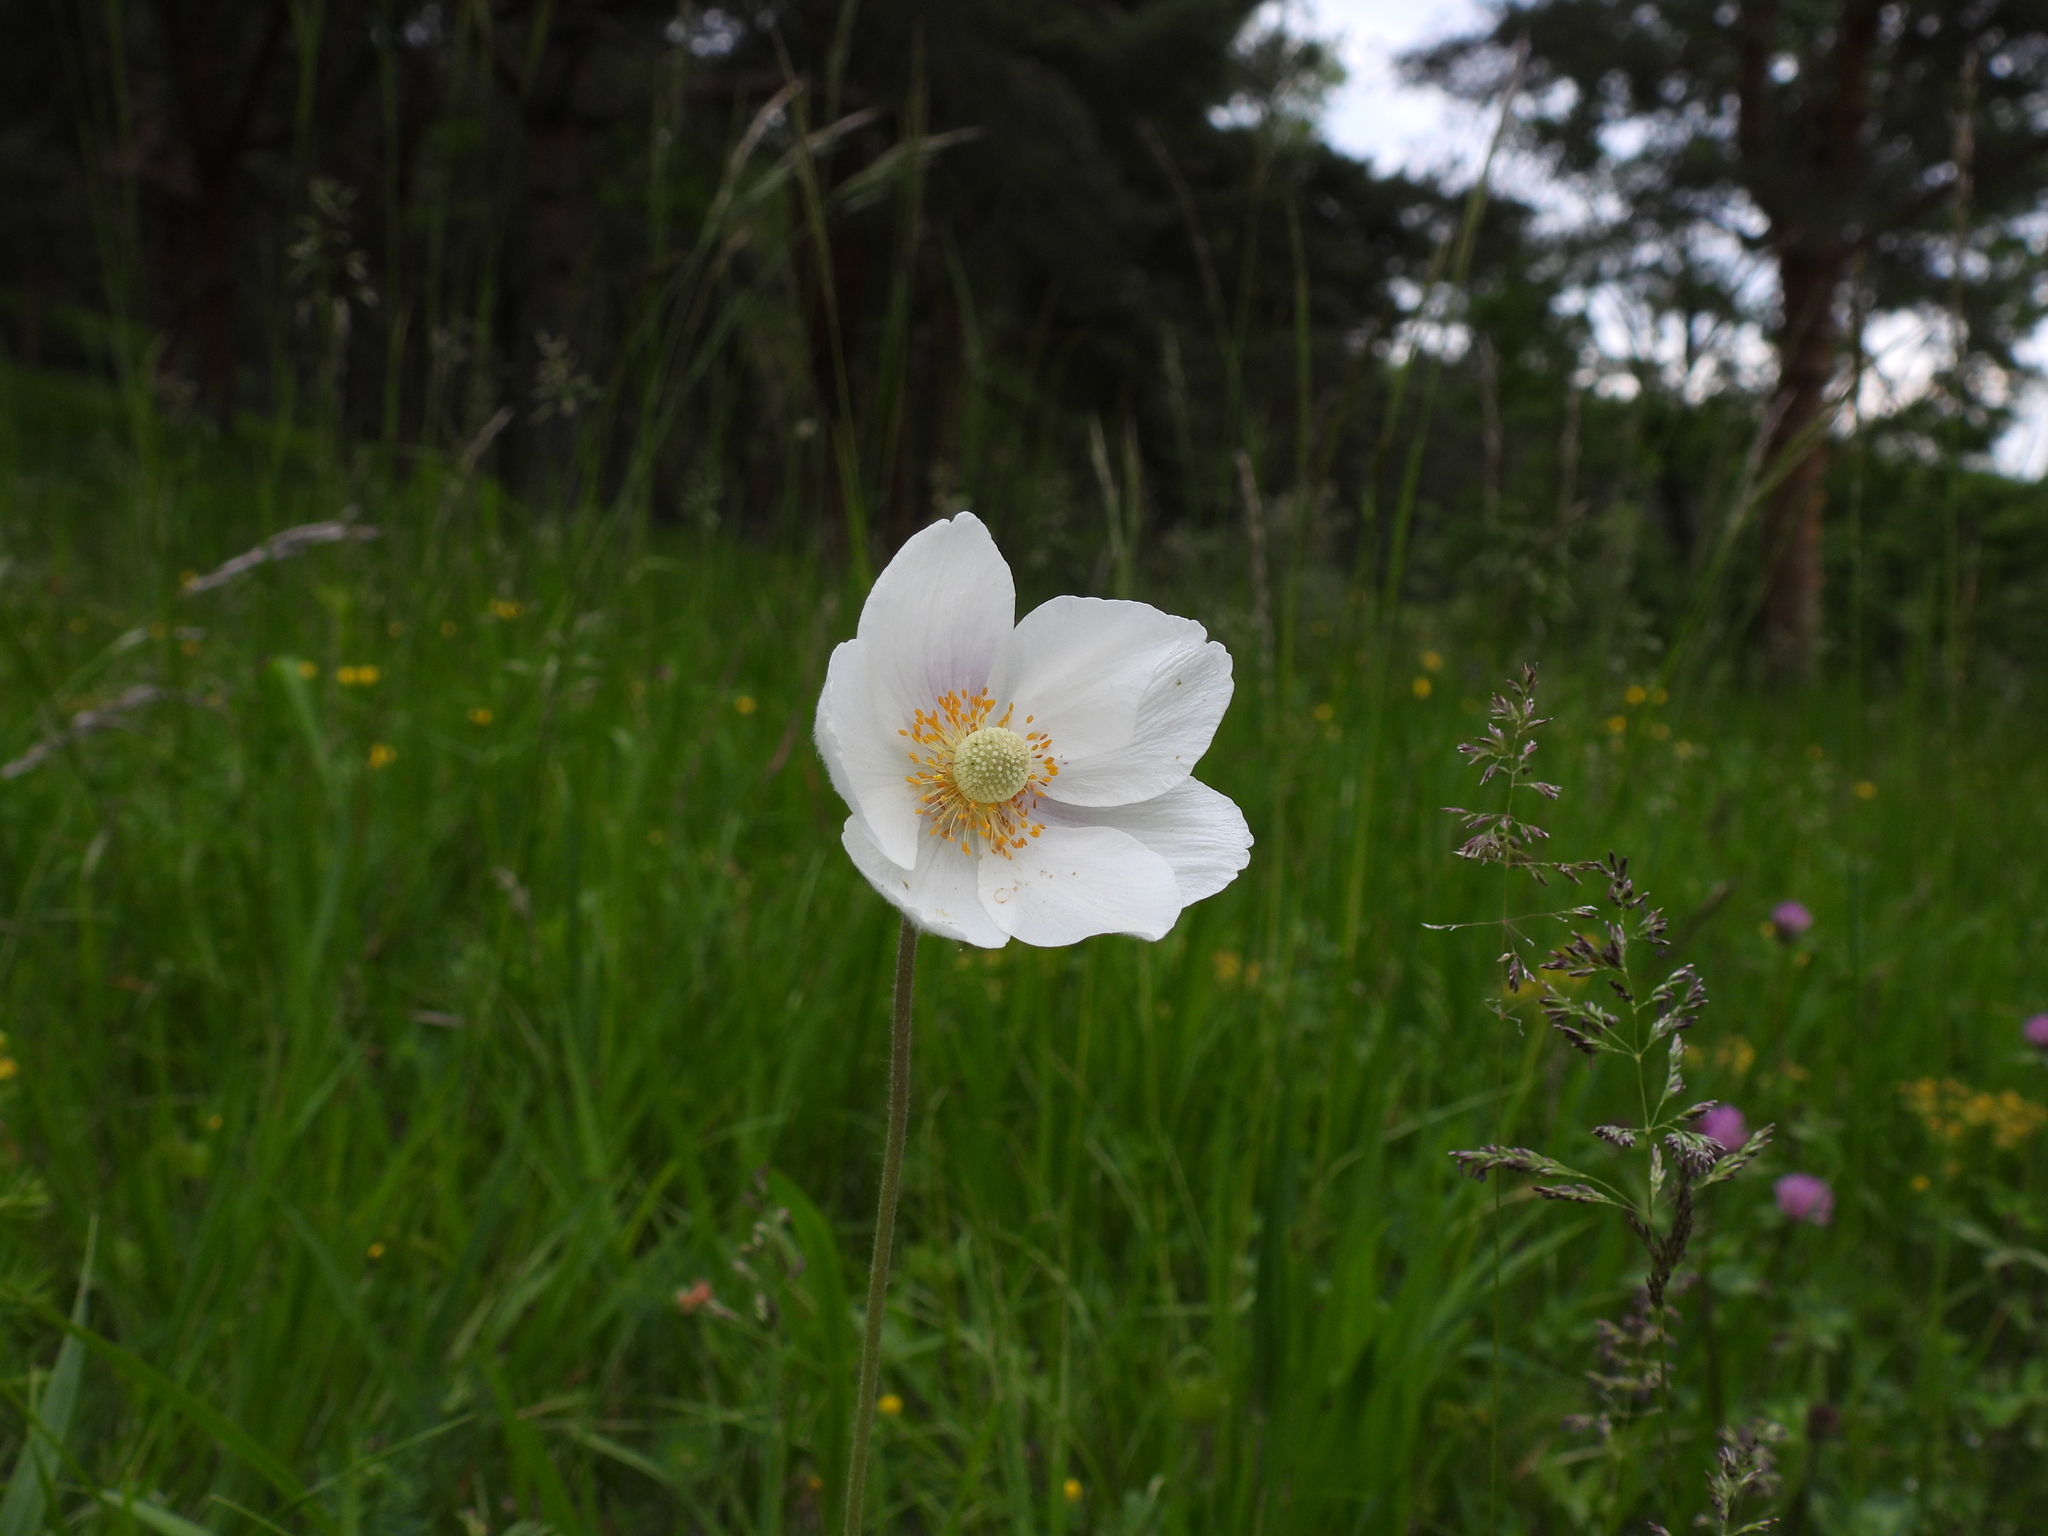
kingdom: Plantae
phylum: Tracheophyta
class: Magnoliopsida
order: Ranunculales
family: Ranunculaceae
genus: Anemone
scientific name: Anemone sylvestris
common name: Snowdrop anemone
